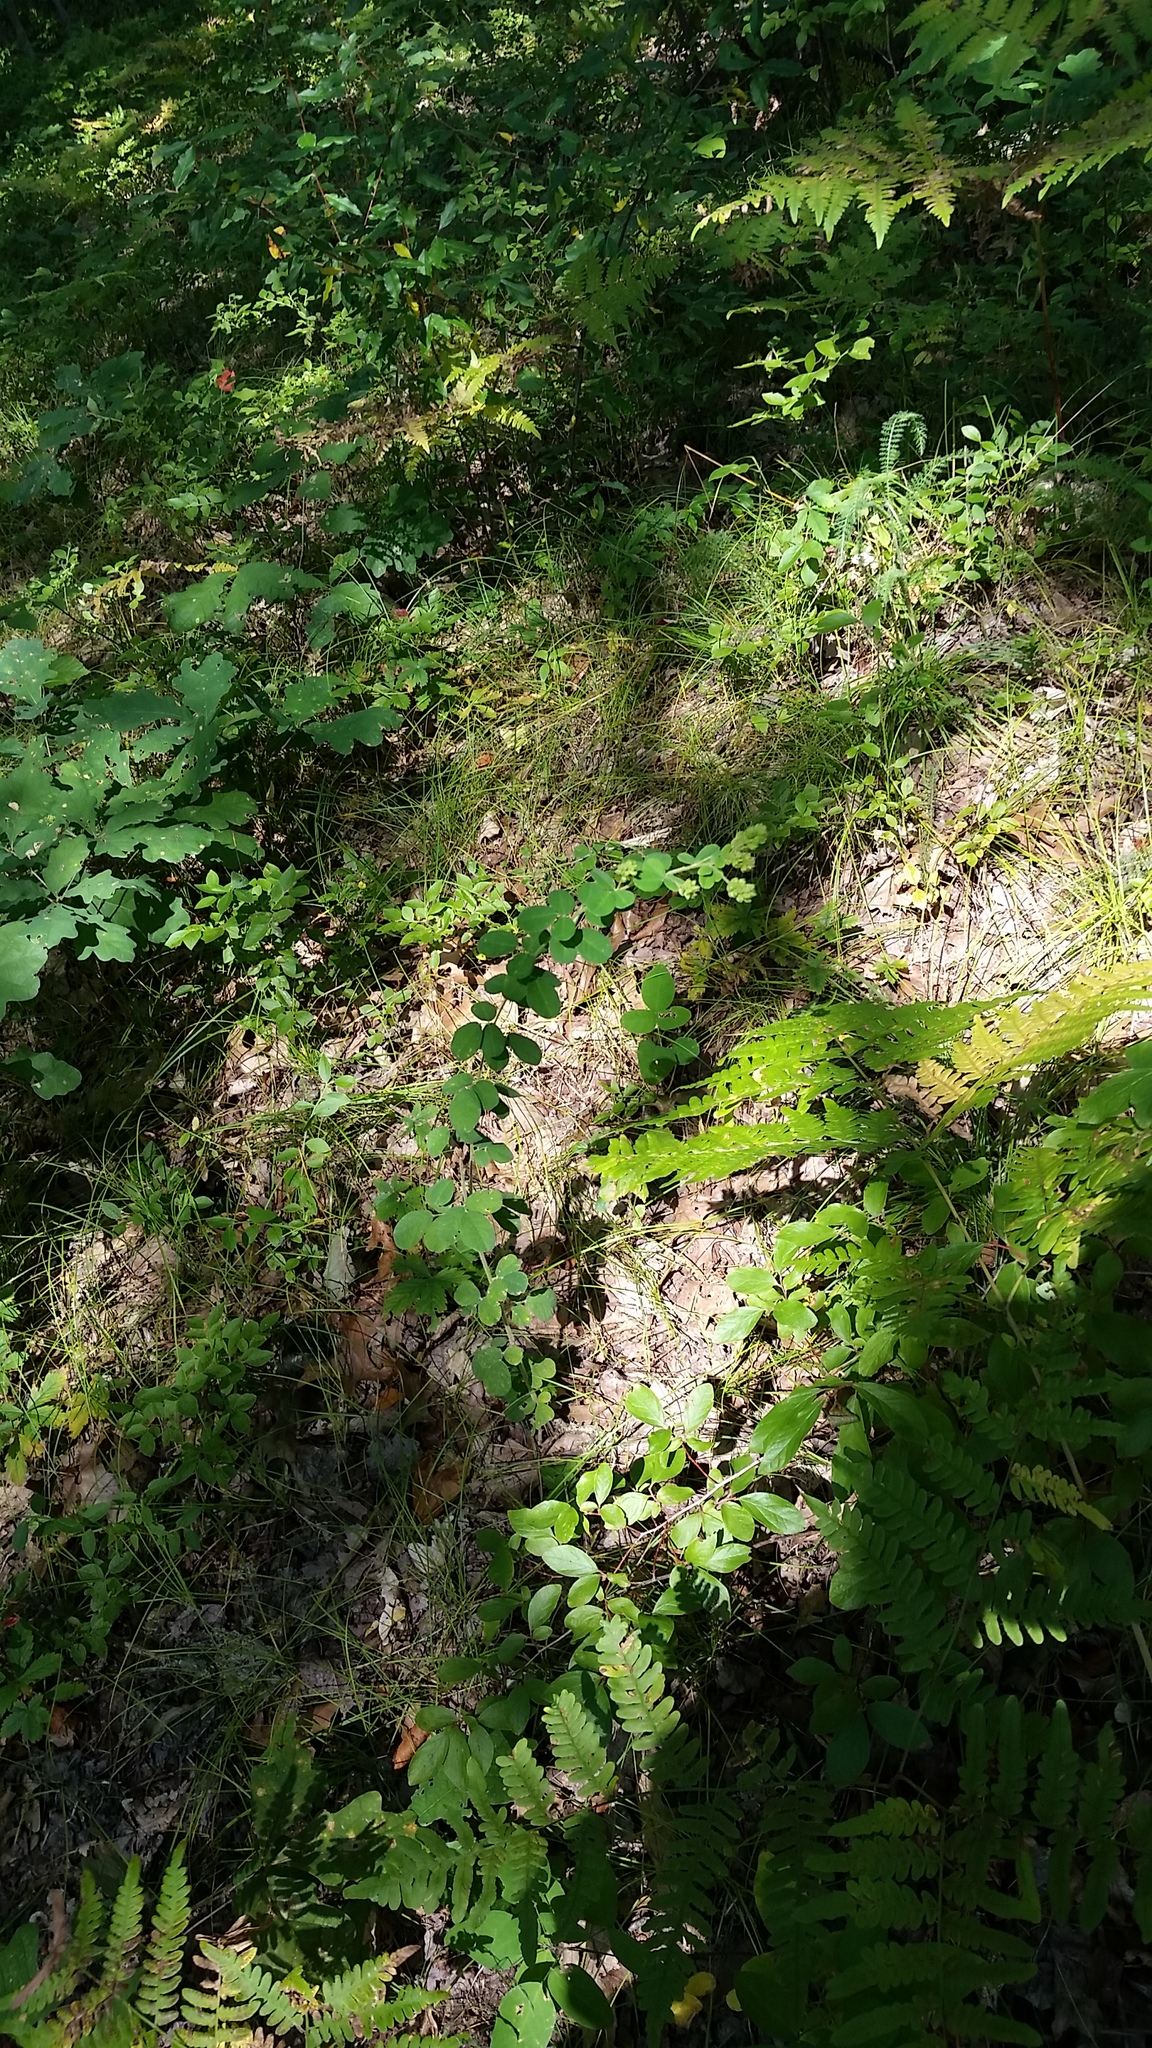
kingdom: Plantae
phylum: Tracheophyta
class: Magnoliopsida
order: Fabales
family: Fabaceae
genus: Lespedeza
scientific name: Lespedeza hirta
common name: Hairy lespedeza
